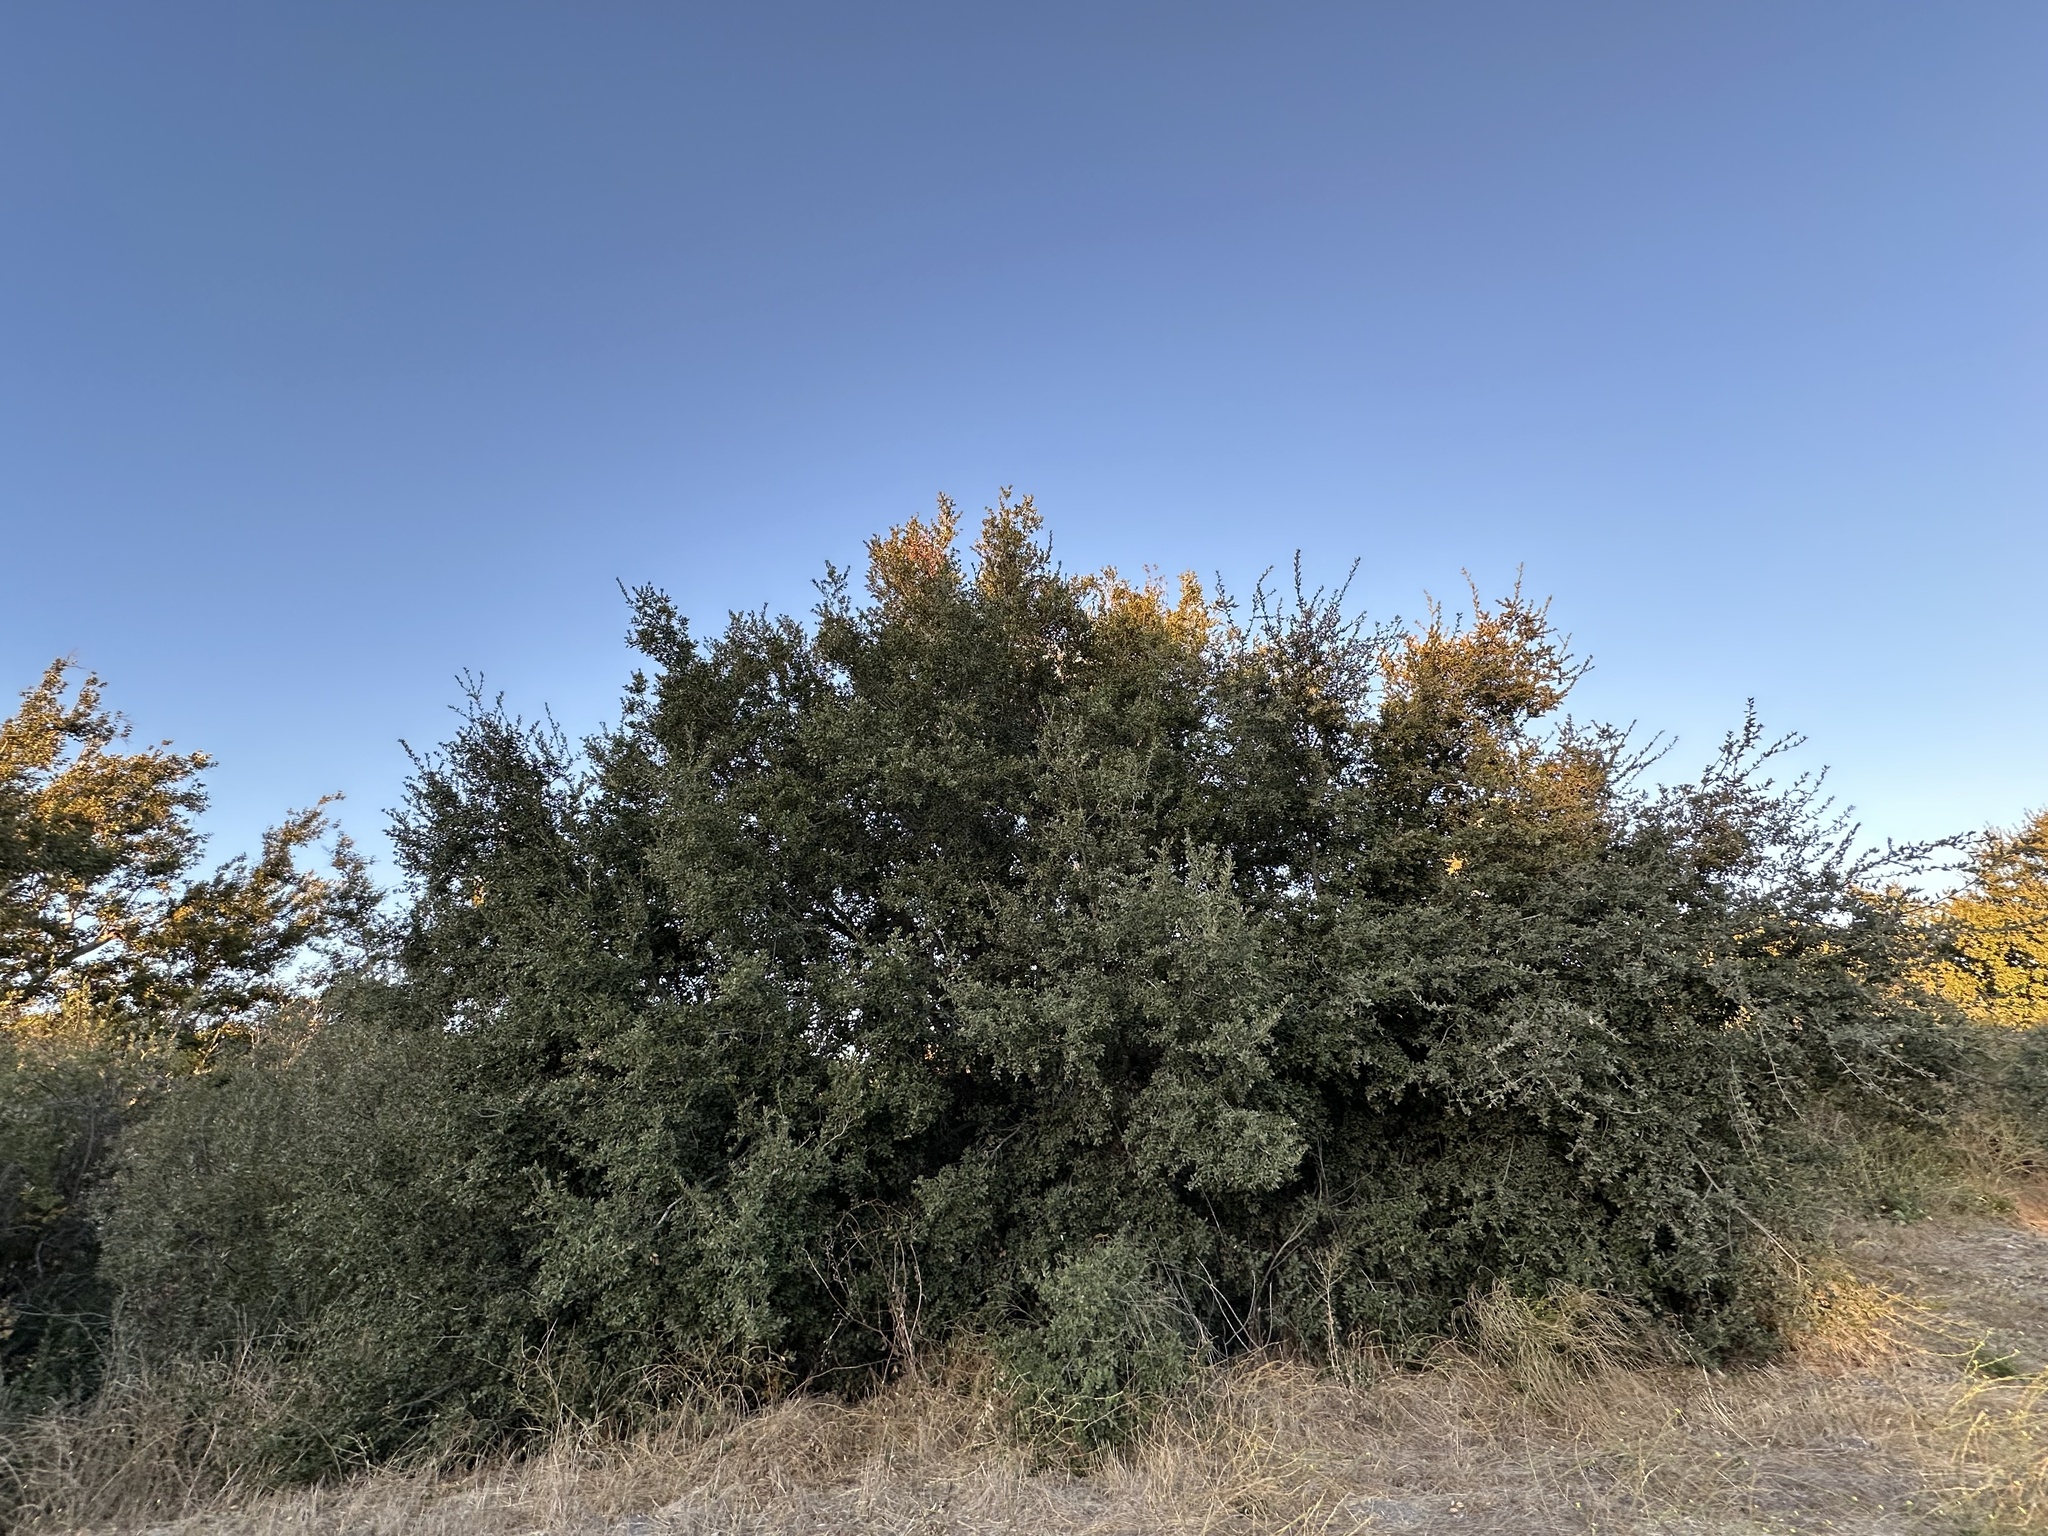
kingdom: Plantae
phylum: Tracheophyta
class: Magnoliopsida
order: Fagales
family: Fagaceae
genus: Quercus
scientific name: Quercus agrifolia
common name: California live oak
